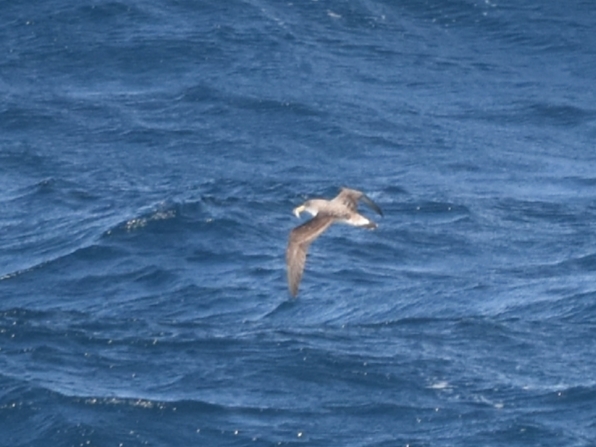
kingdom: Animalia
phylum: Chordata
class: Aves
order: Procellariiformes
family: Procellariidae
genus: Calonectris
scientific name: Calonectris diomedea
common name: Cory's shearwater
